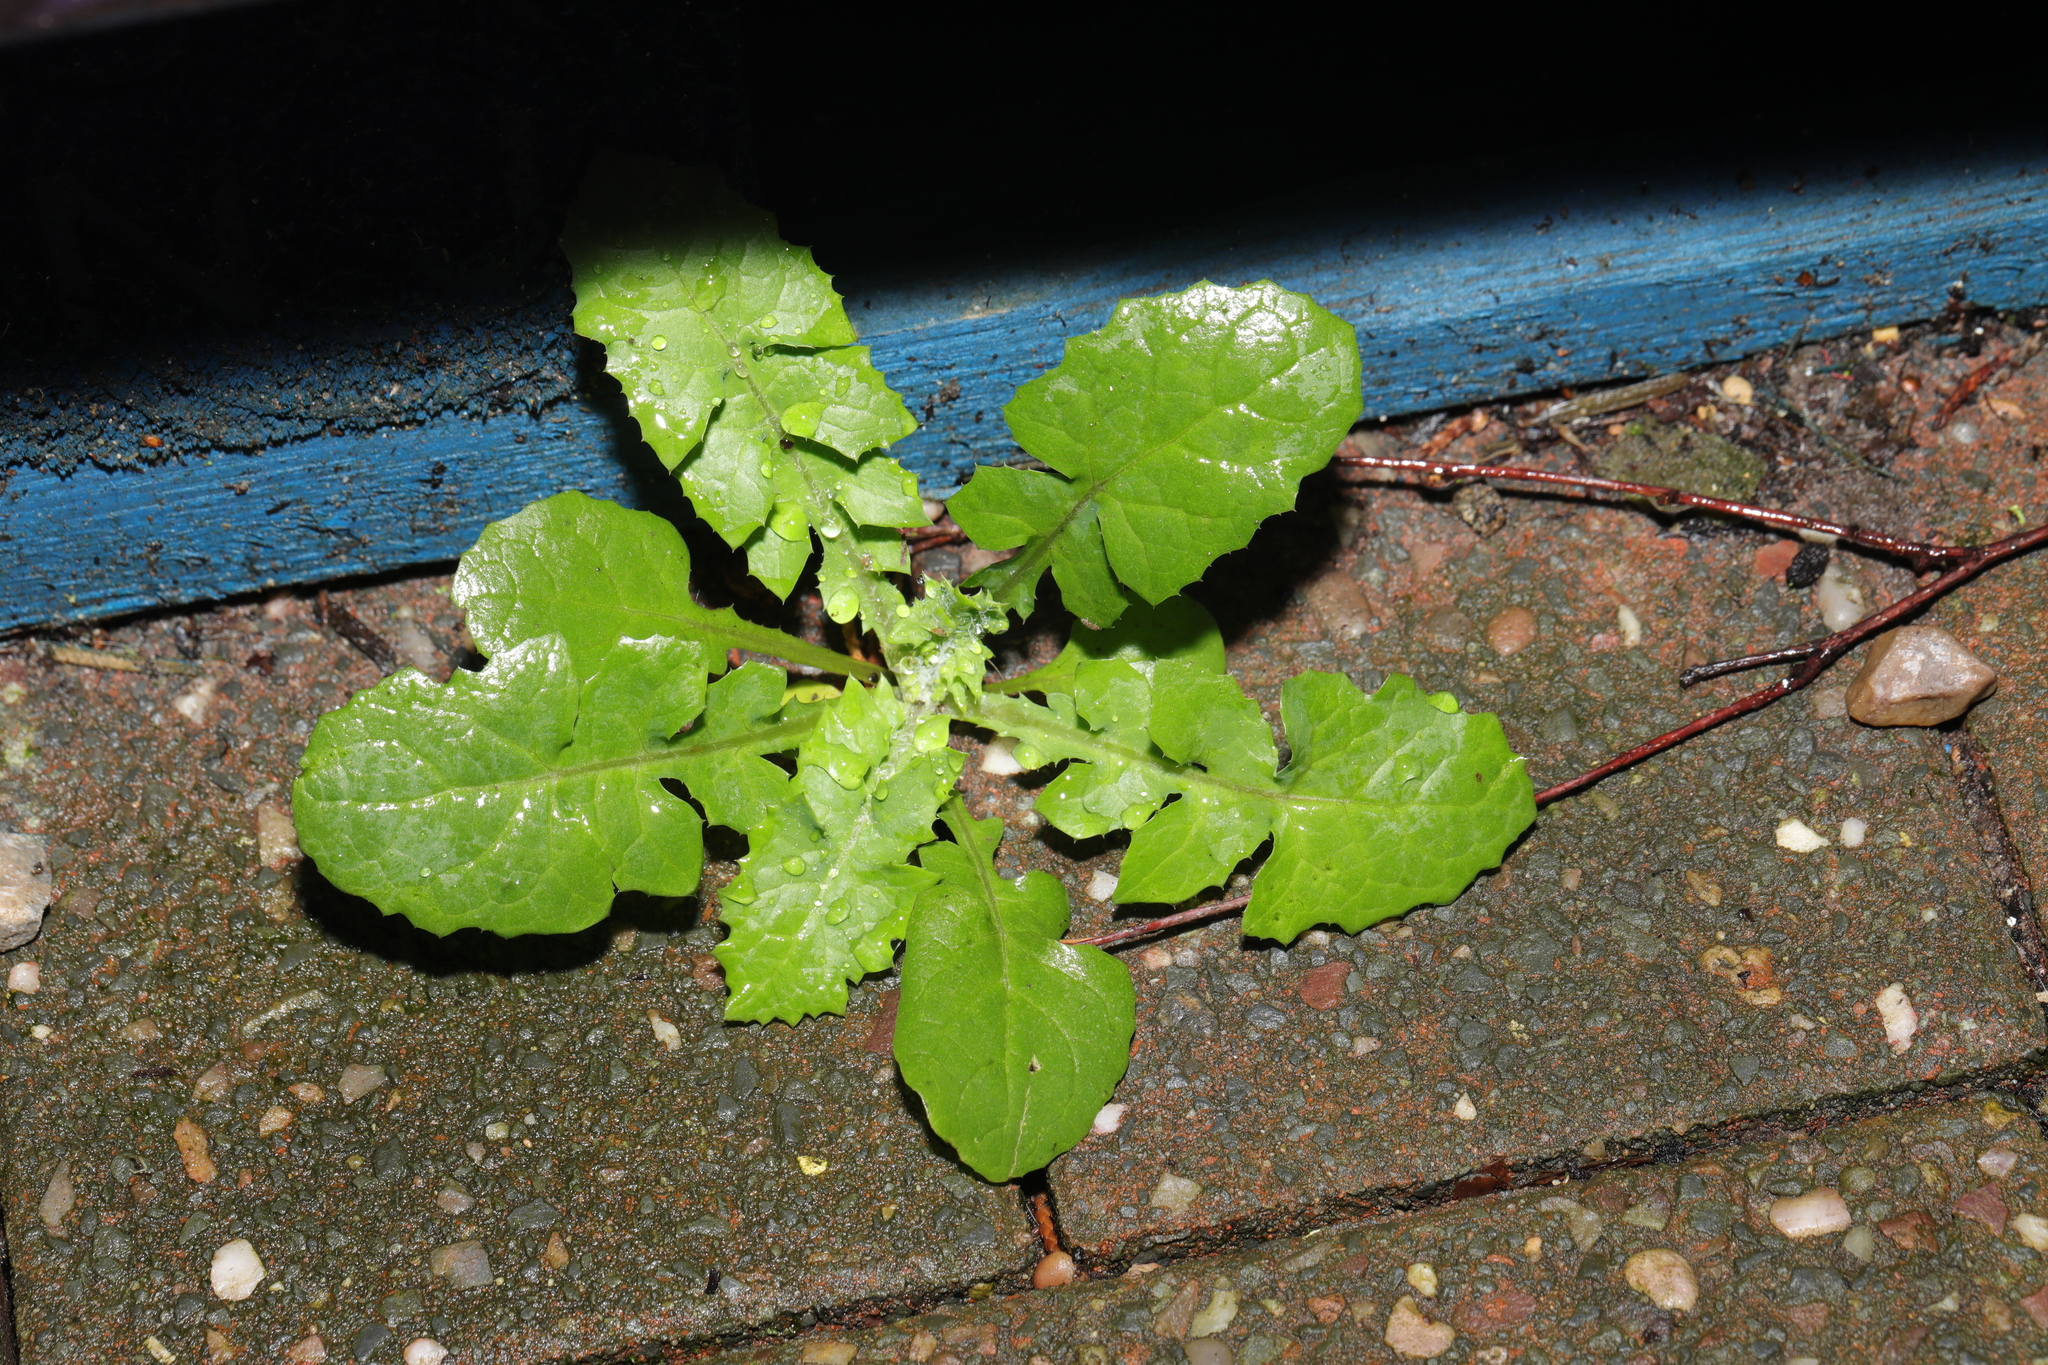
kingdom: Plantae
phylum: Tracheophyta
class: Magnoliopsida
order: Asterales
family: Asteraceae
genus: Sonchus
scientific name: Sonchus oleraceus
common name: Common sowthistle
